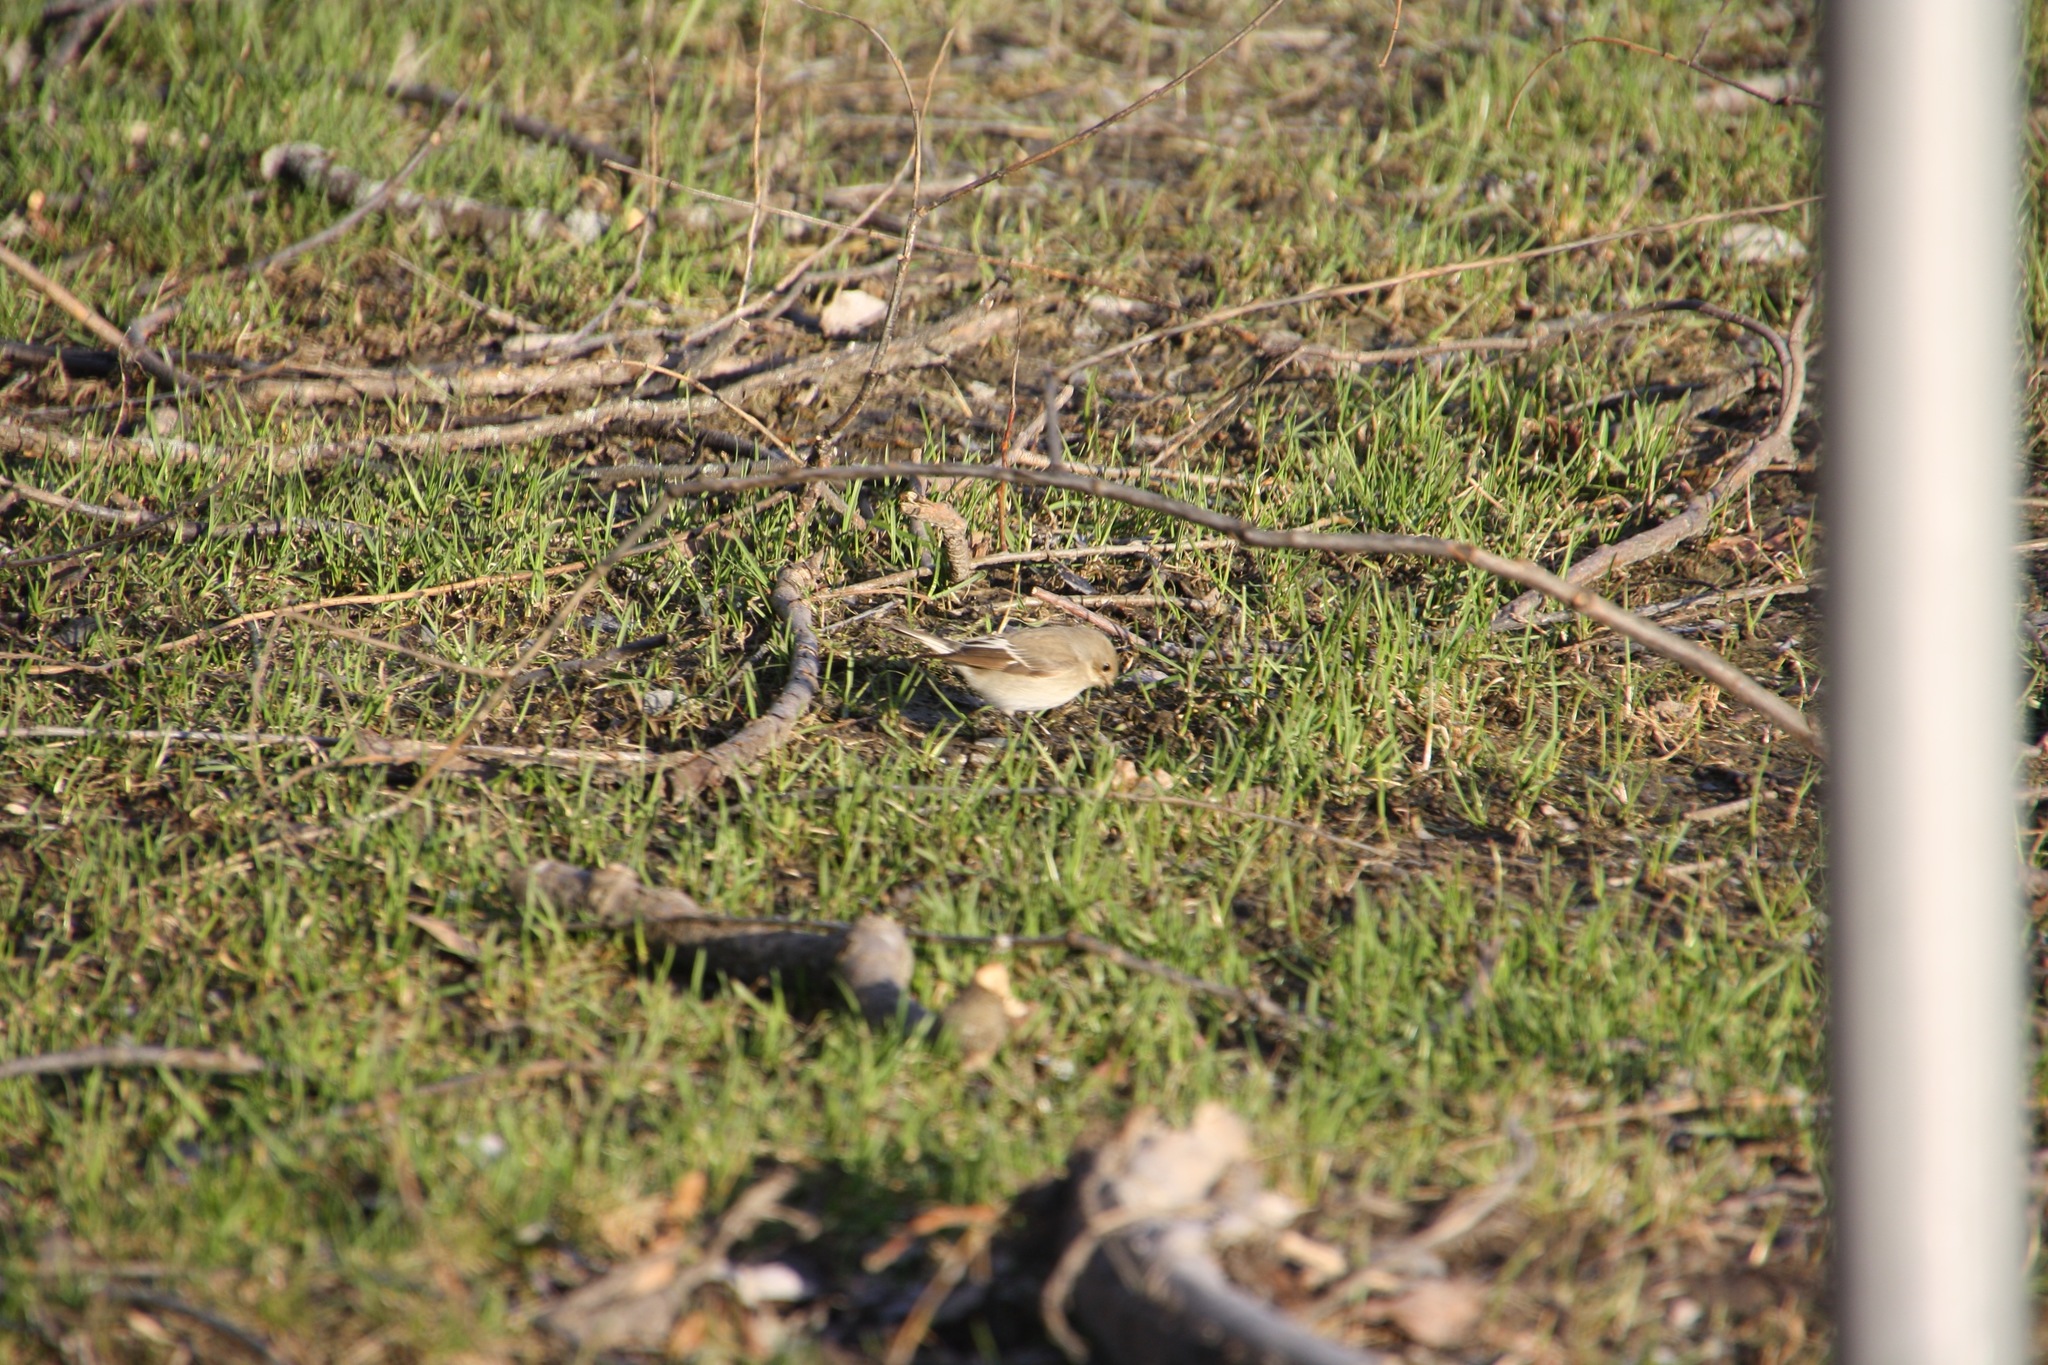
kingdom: Animalia
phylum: Chordata
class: Aves
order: Passeriformes
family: Muscicapidae
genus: Ficedula
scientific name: Ficedula hypoleuca
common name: European pied flycatcher
